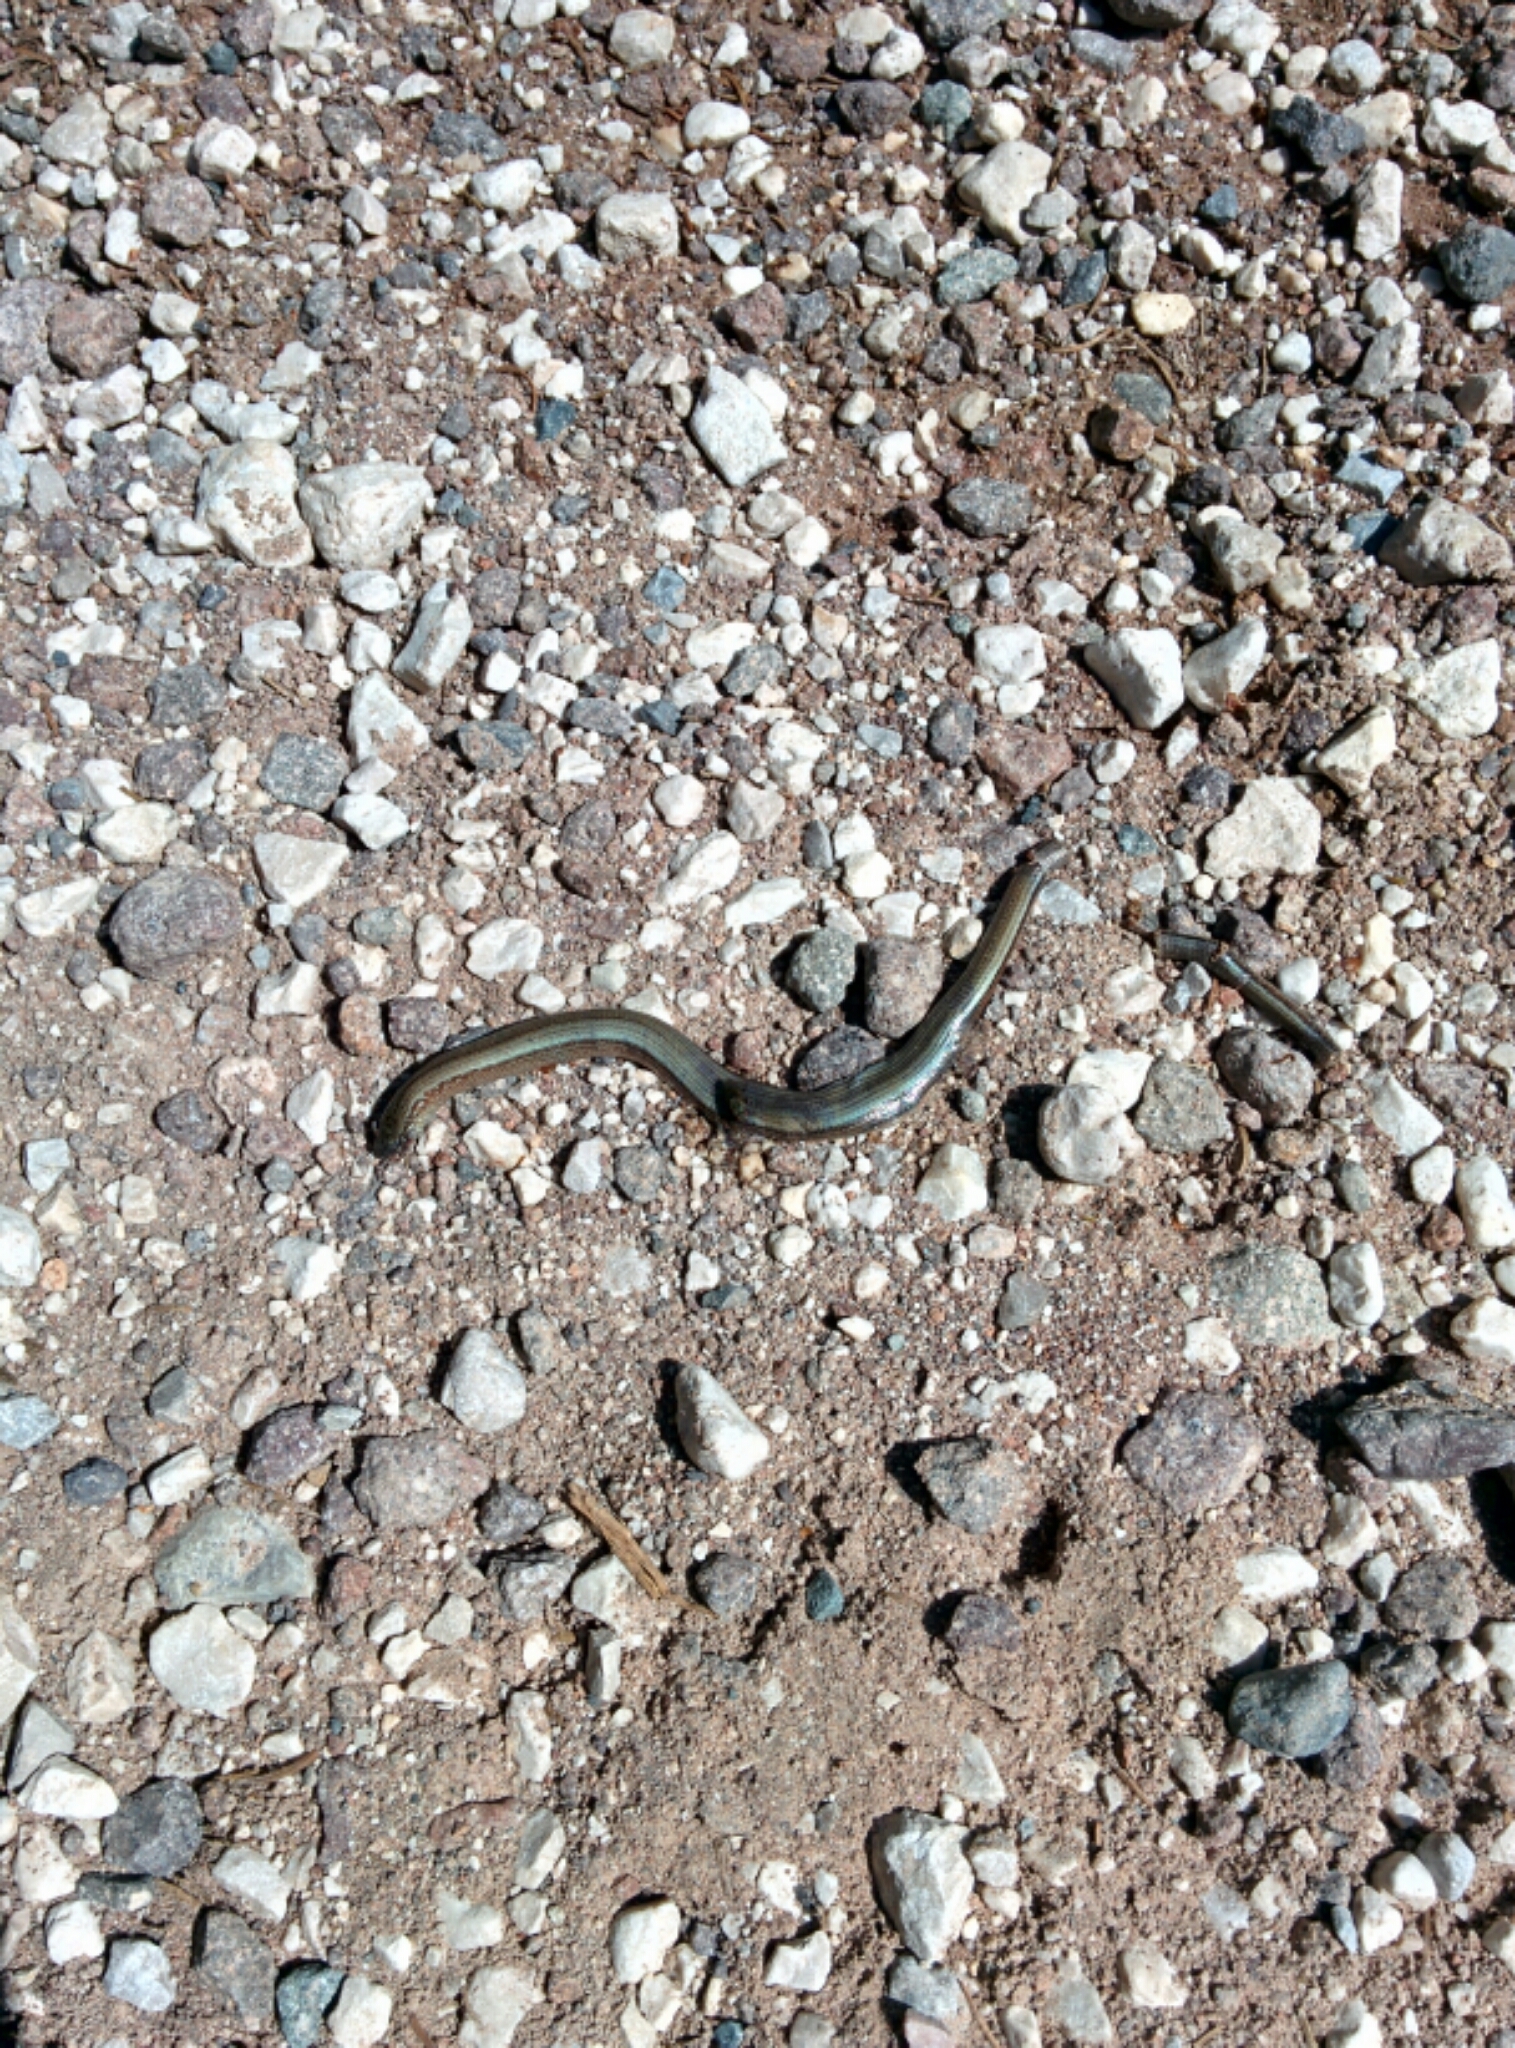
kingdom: Animalia
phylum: Chordata
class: Squamata
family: Anguidae
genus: Anguis
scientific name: Anguis veronensis
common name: Italian slow worm
